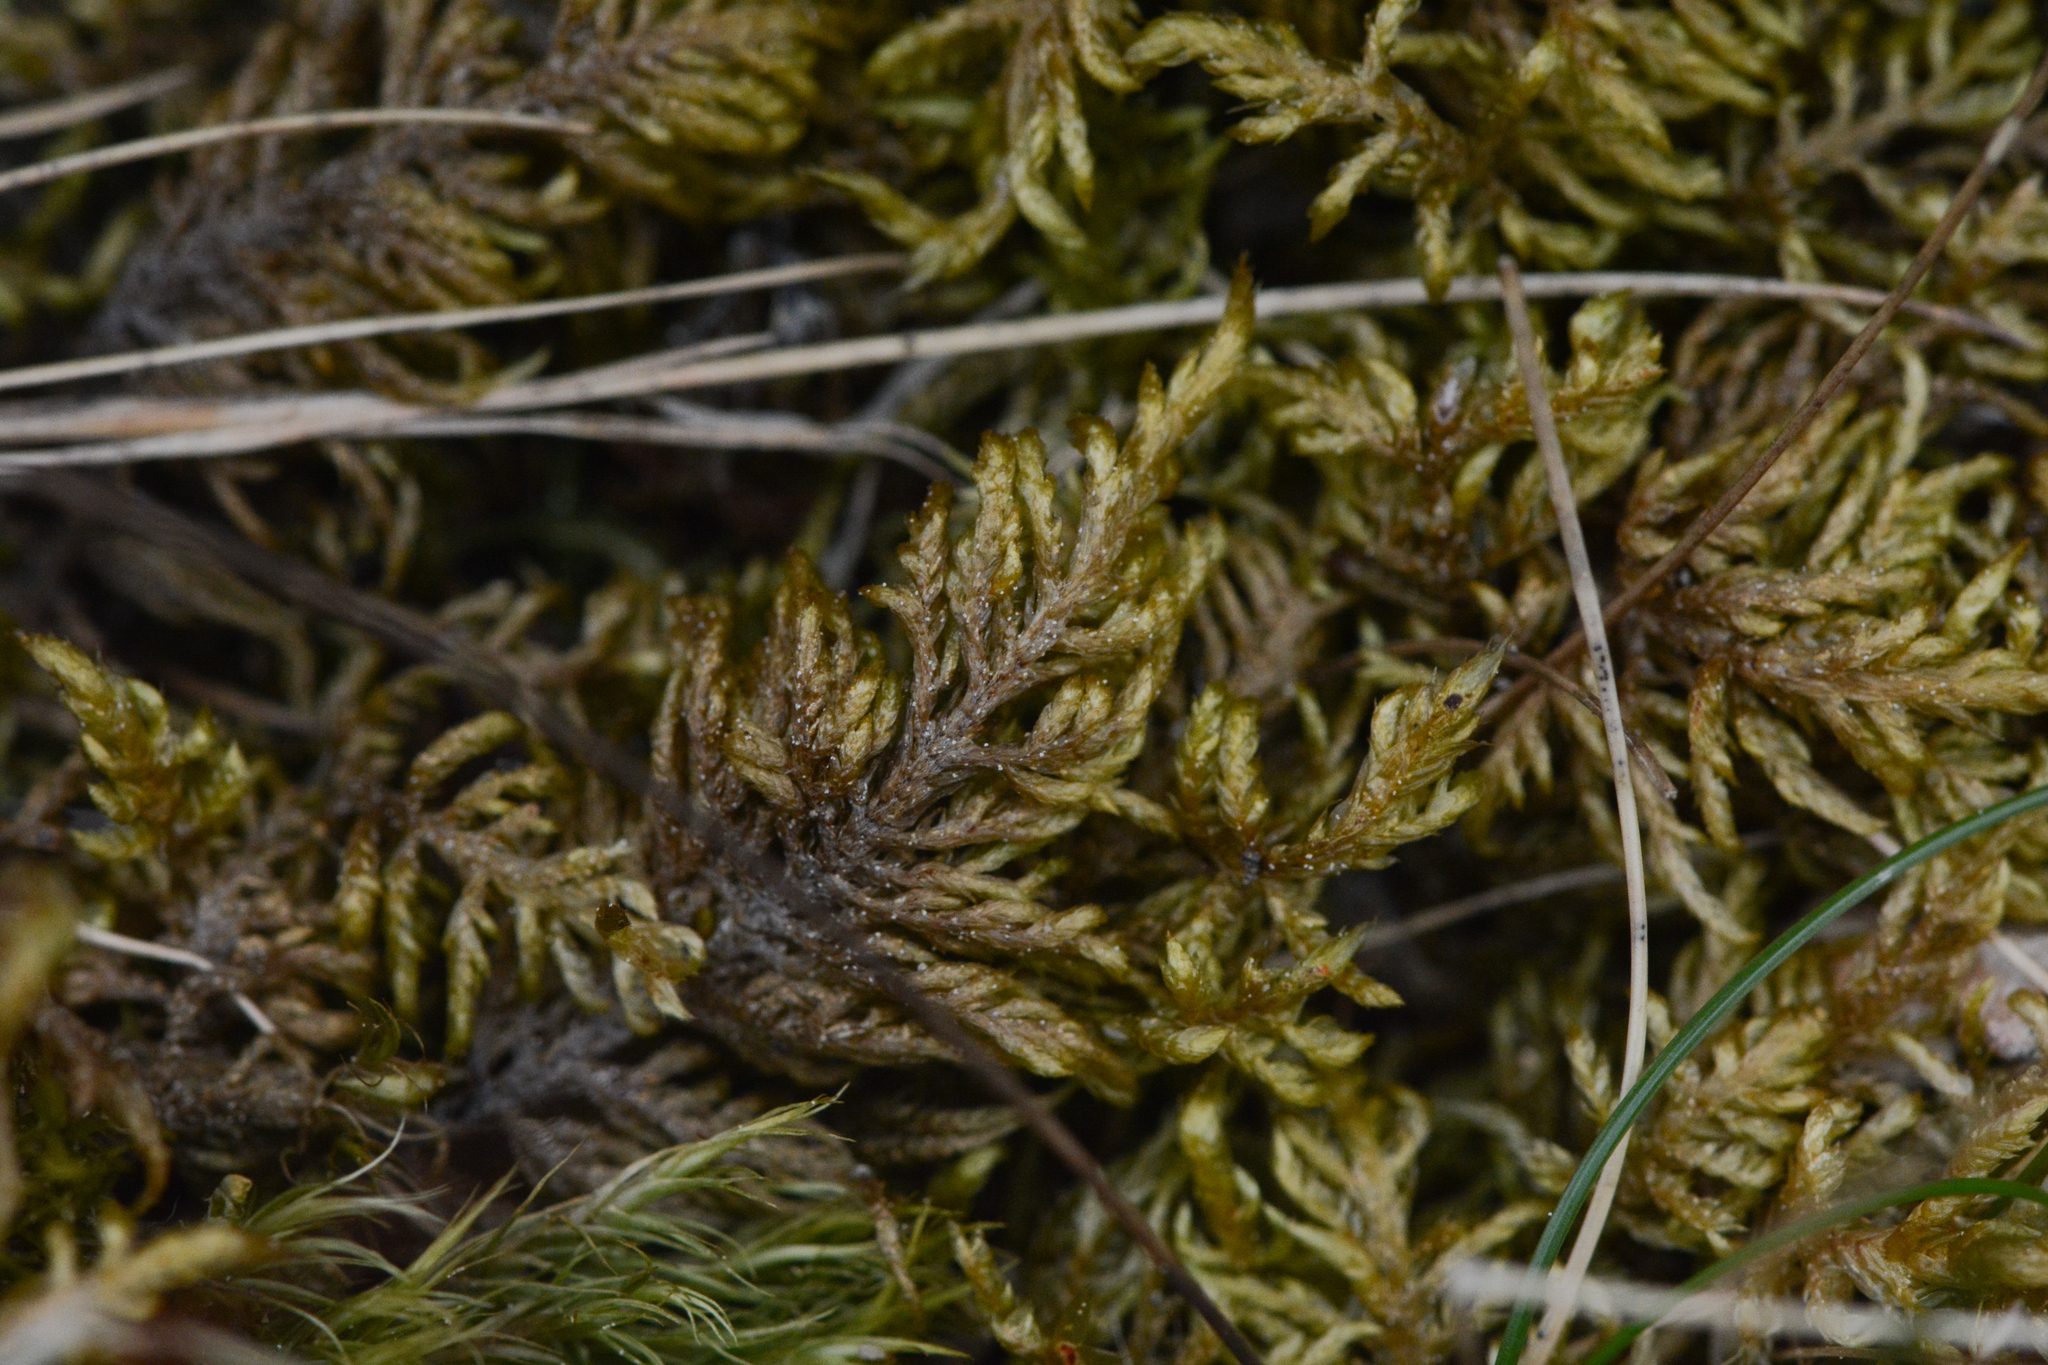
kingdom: Plantae
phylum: Bryophyta
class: Bryopsida
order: Hypnales
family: Hylocomiaceae
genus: Hylocomium
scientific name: Hylocomium splendens
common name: Stairstep moss
